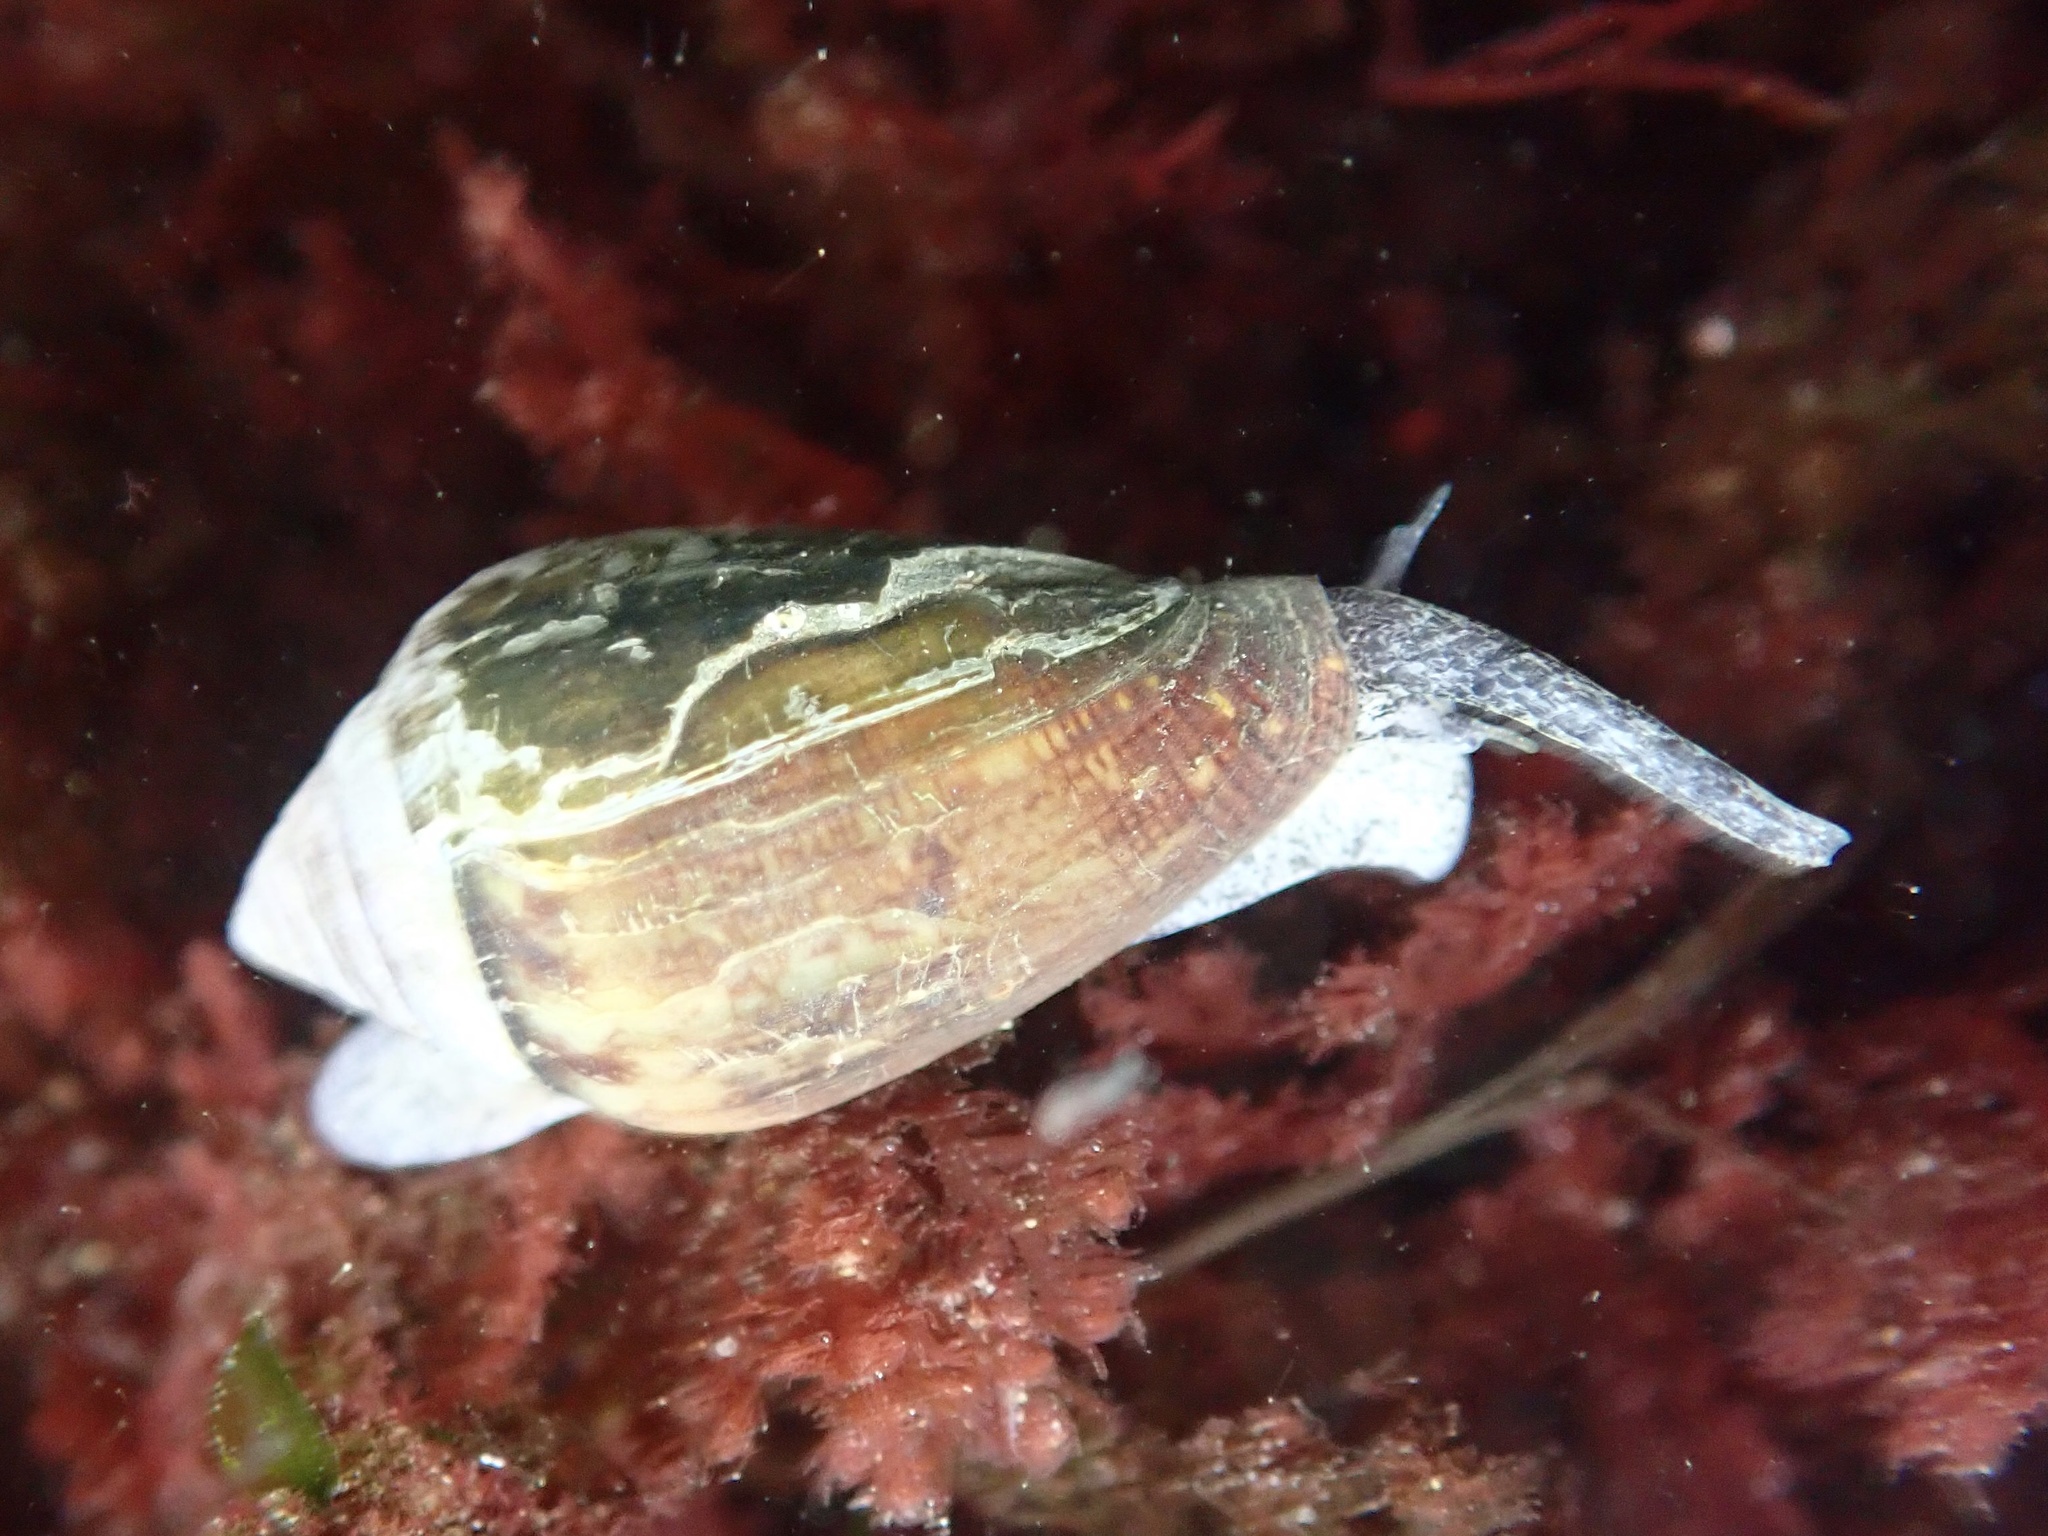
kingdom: Animalia
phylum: Mollusca
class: Gastropoda
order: Neogastropoda
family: Conidae
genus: Californiconus
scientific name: Californiconus californicus
